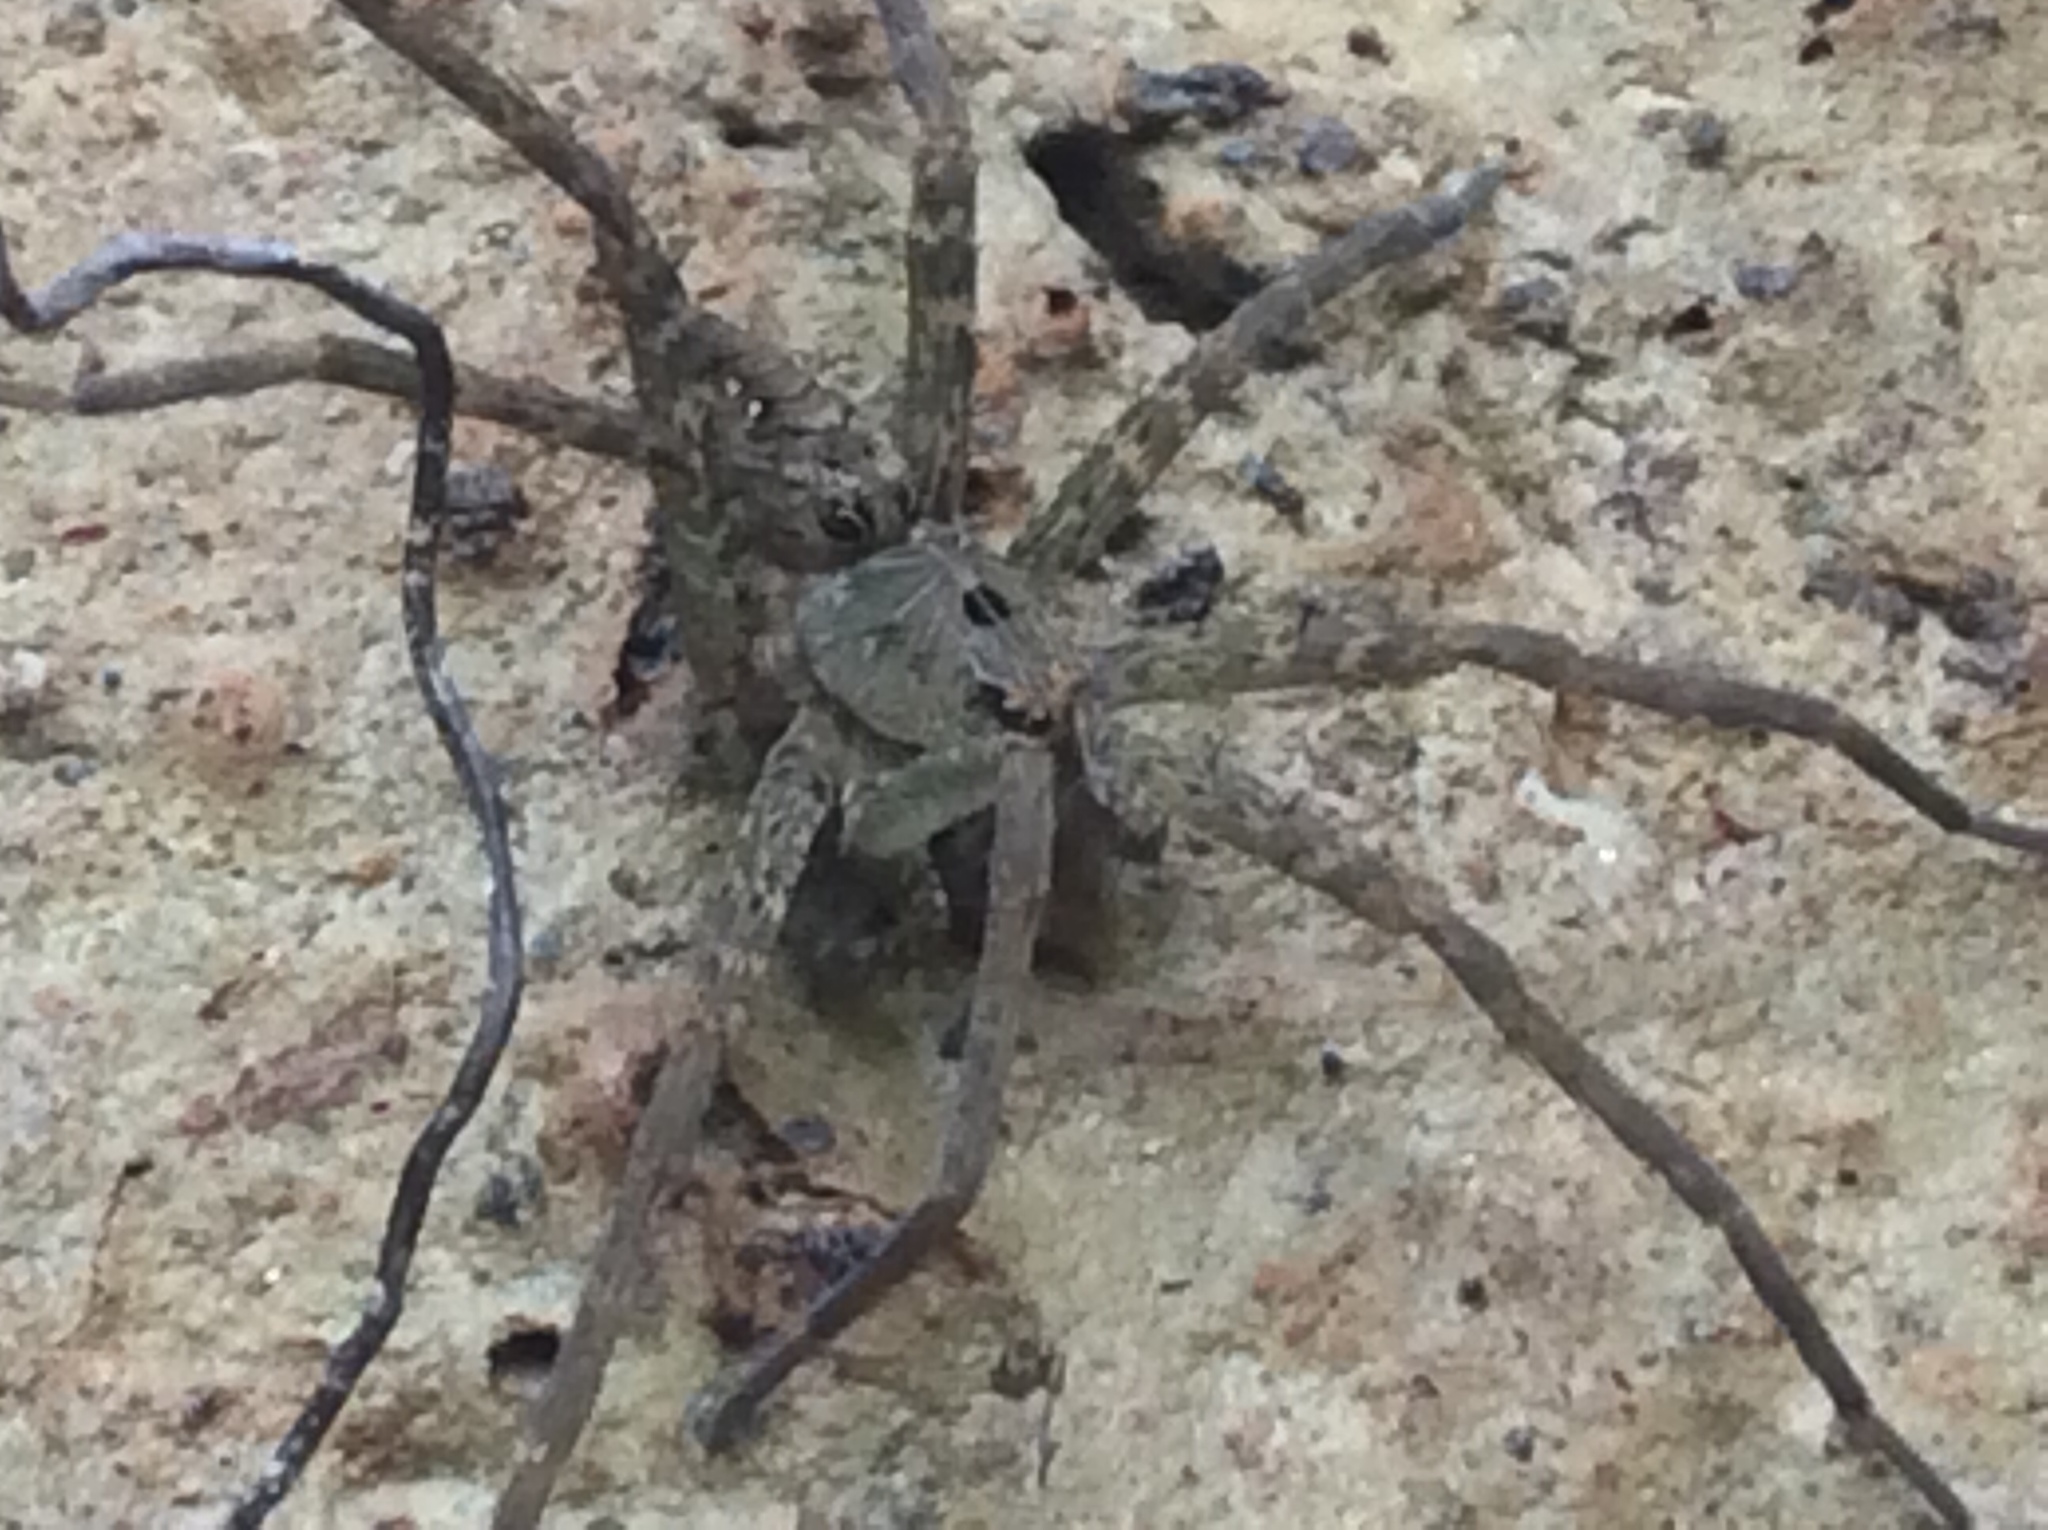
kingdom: Animalia
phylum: Arthropoda
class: Arachnida
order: Araneae
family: Pisauridae
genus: Dolomedes
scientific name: Dolomedes vittatus
